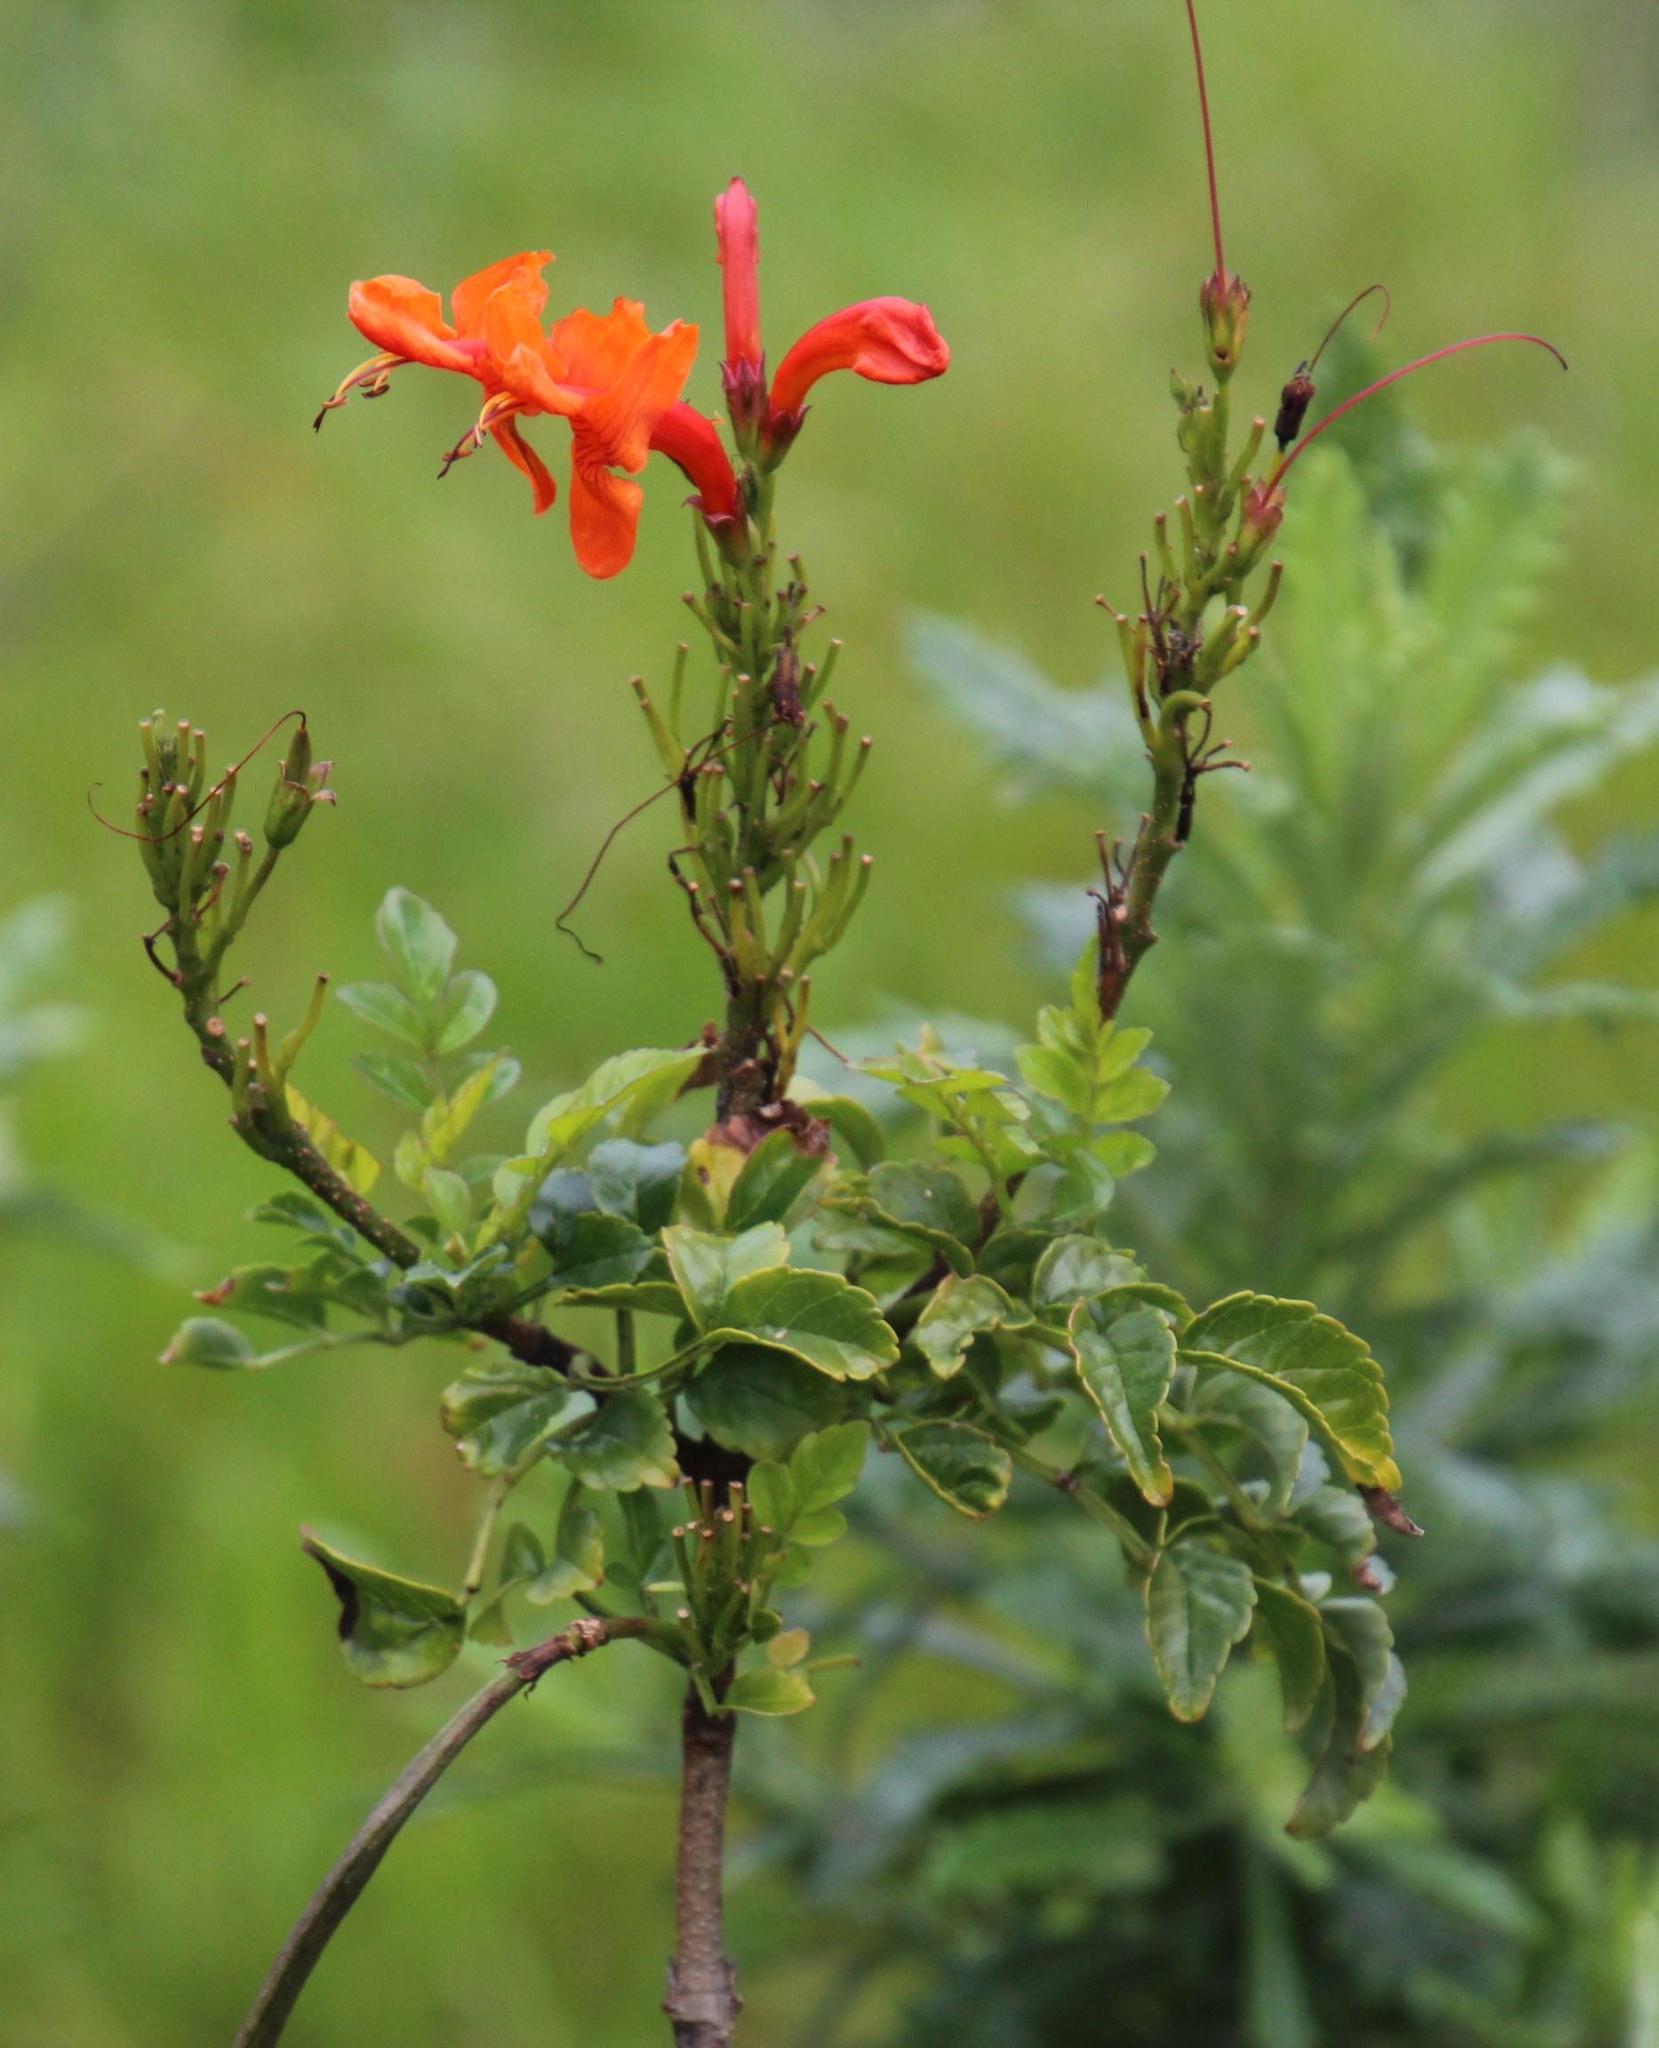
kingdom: Plantae
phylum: Tracheophyta
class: Magnoliopsida
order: Lamiales
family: Bignoniaceae
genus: Tecomaria
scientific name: Tecomaria capensis
